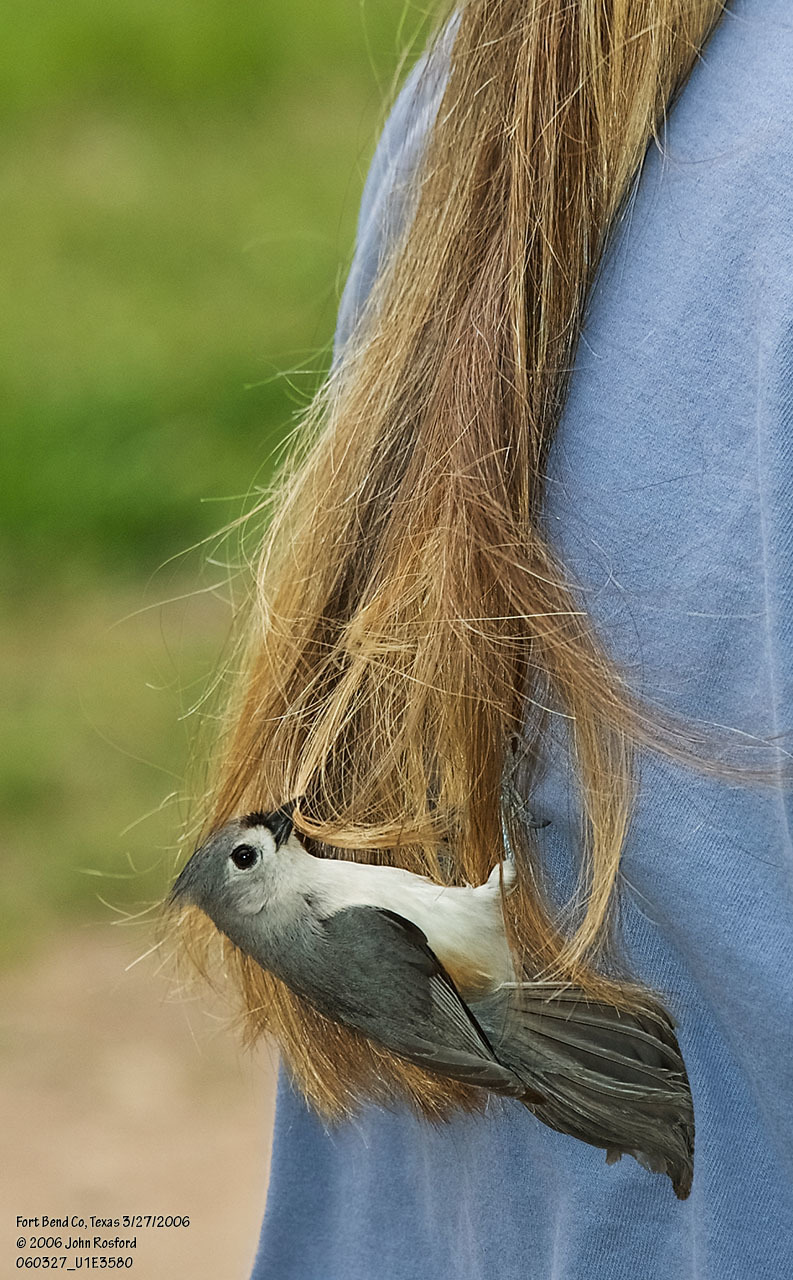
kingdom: Animalia
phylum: Chordata
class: Aves
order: Passeriformes
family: Paridae
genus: Baeolophus
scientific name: Baeolophus bicolor
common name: Tufted titmouse
